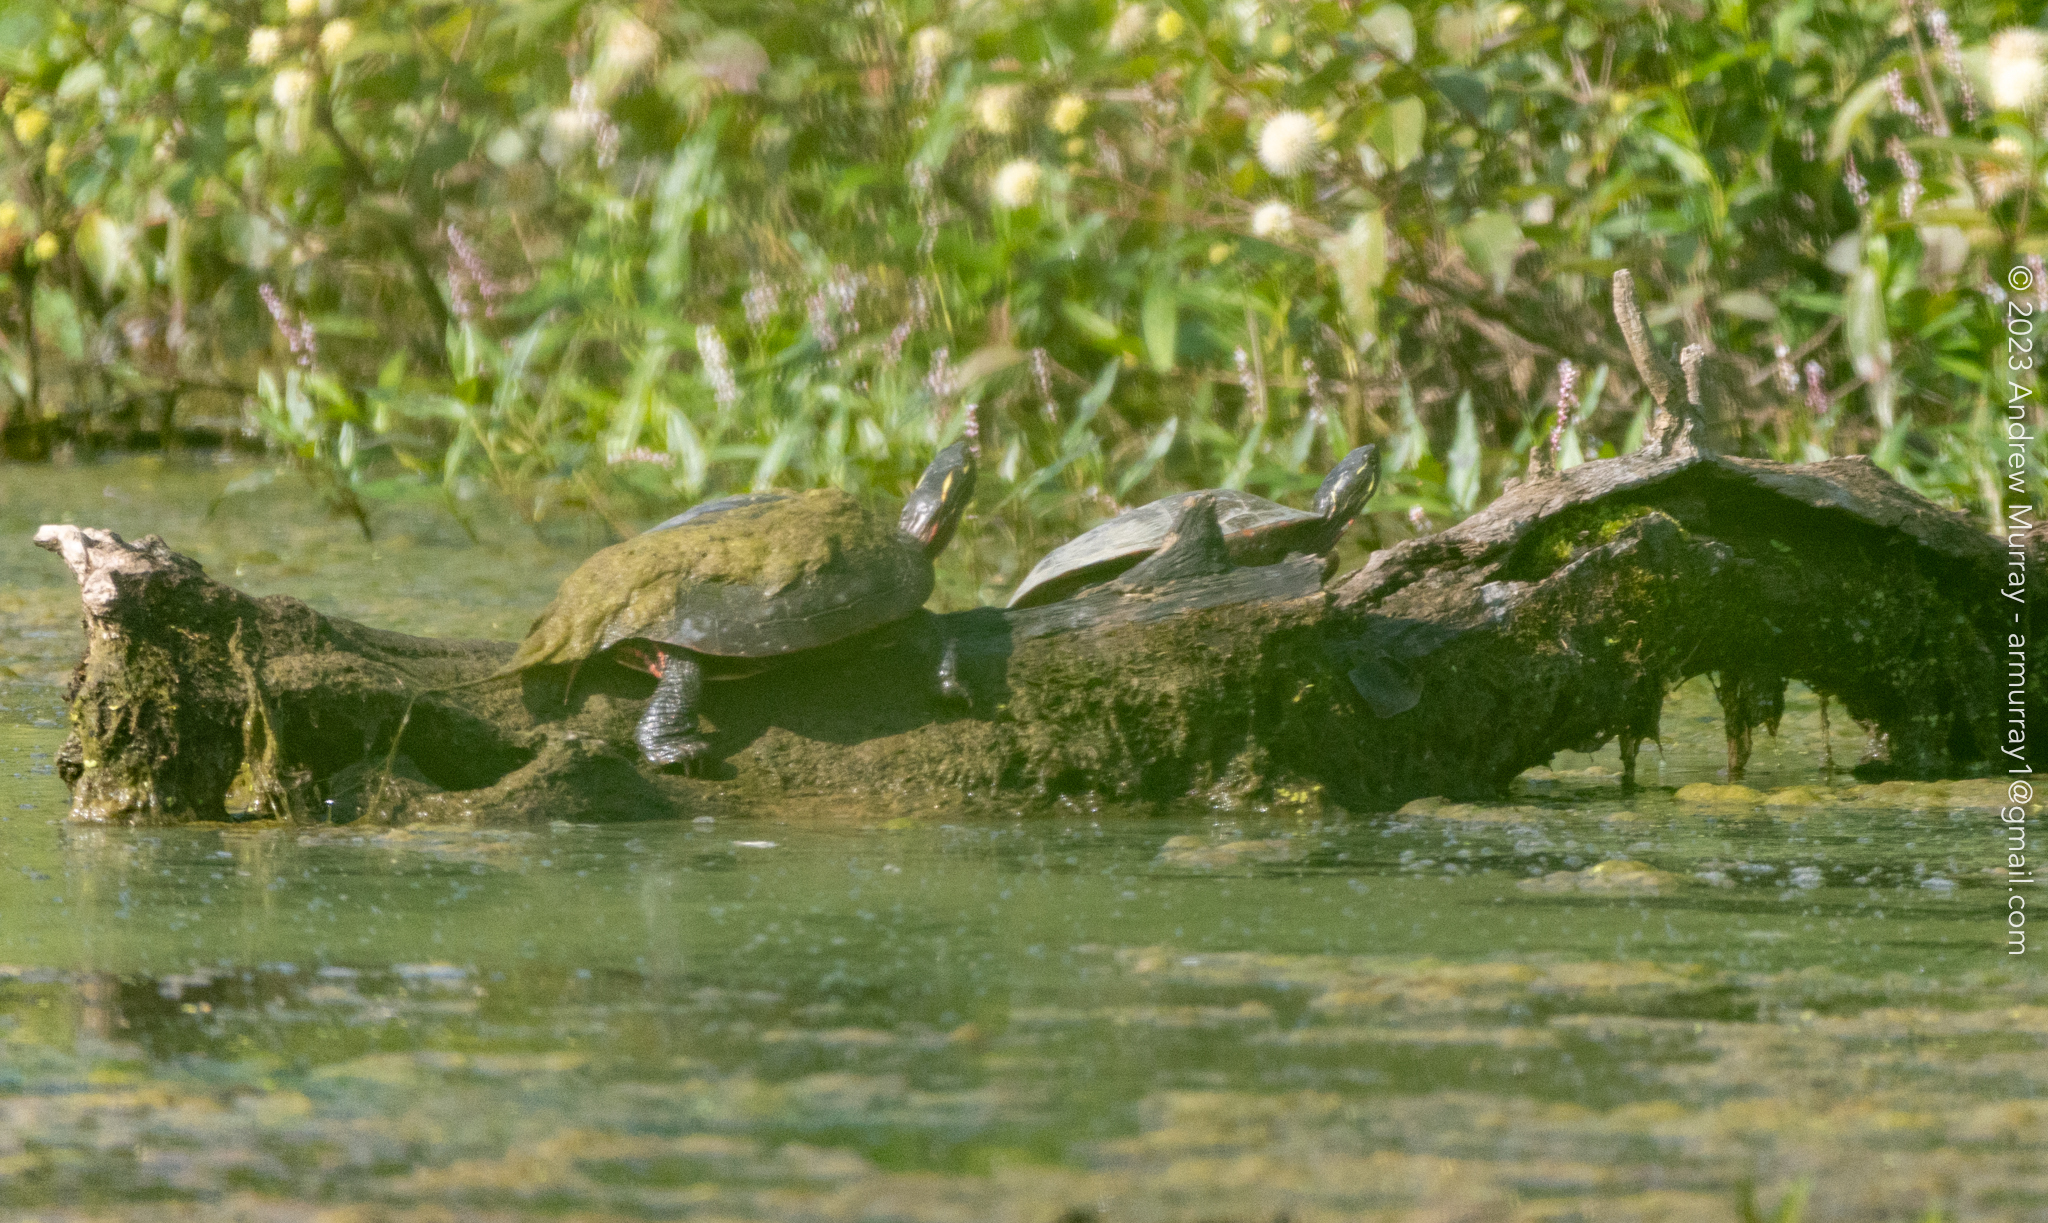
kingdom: Animalia
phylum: Chordata
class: Testudines
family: Emydidae
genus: Chrysemys
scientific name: Chrysemys picta
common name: Painted turtle
